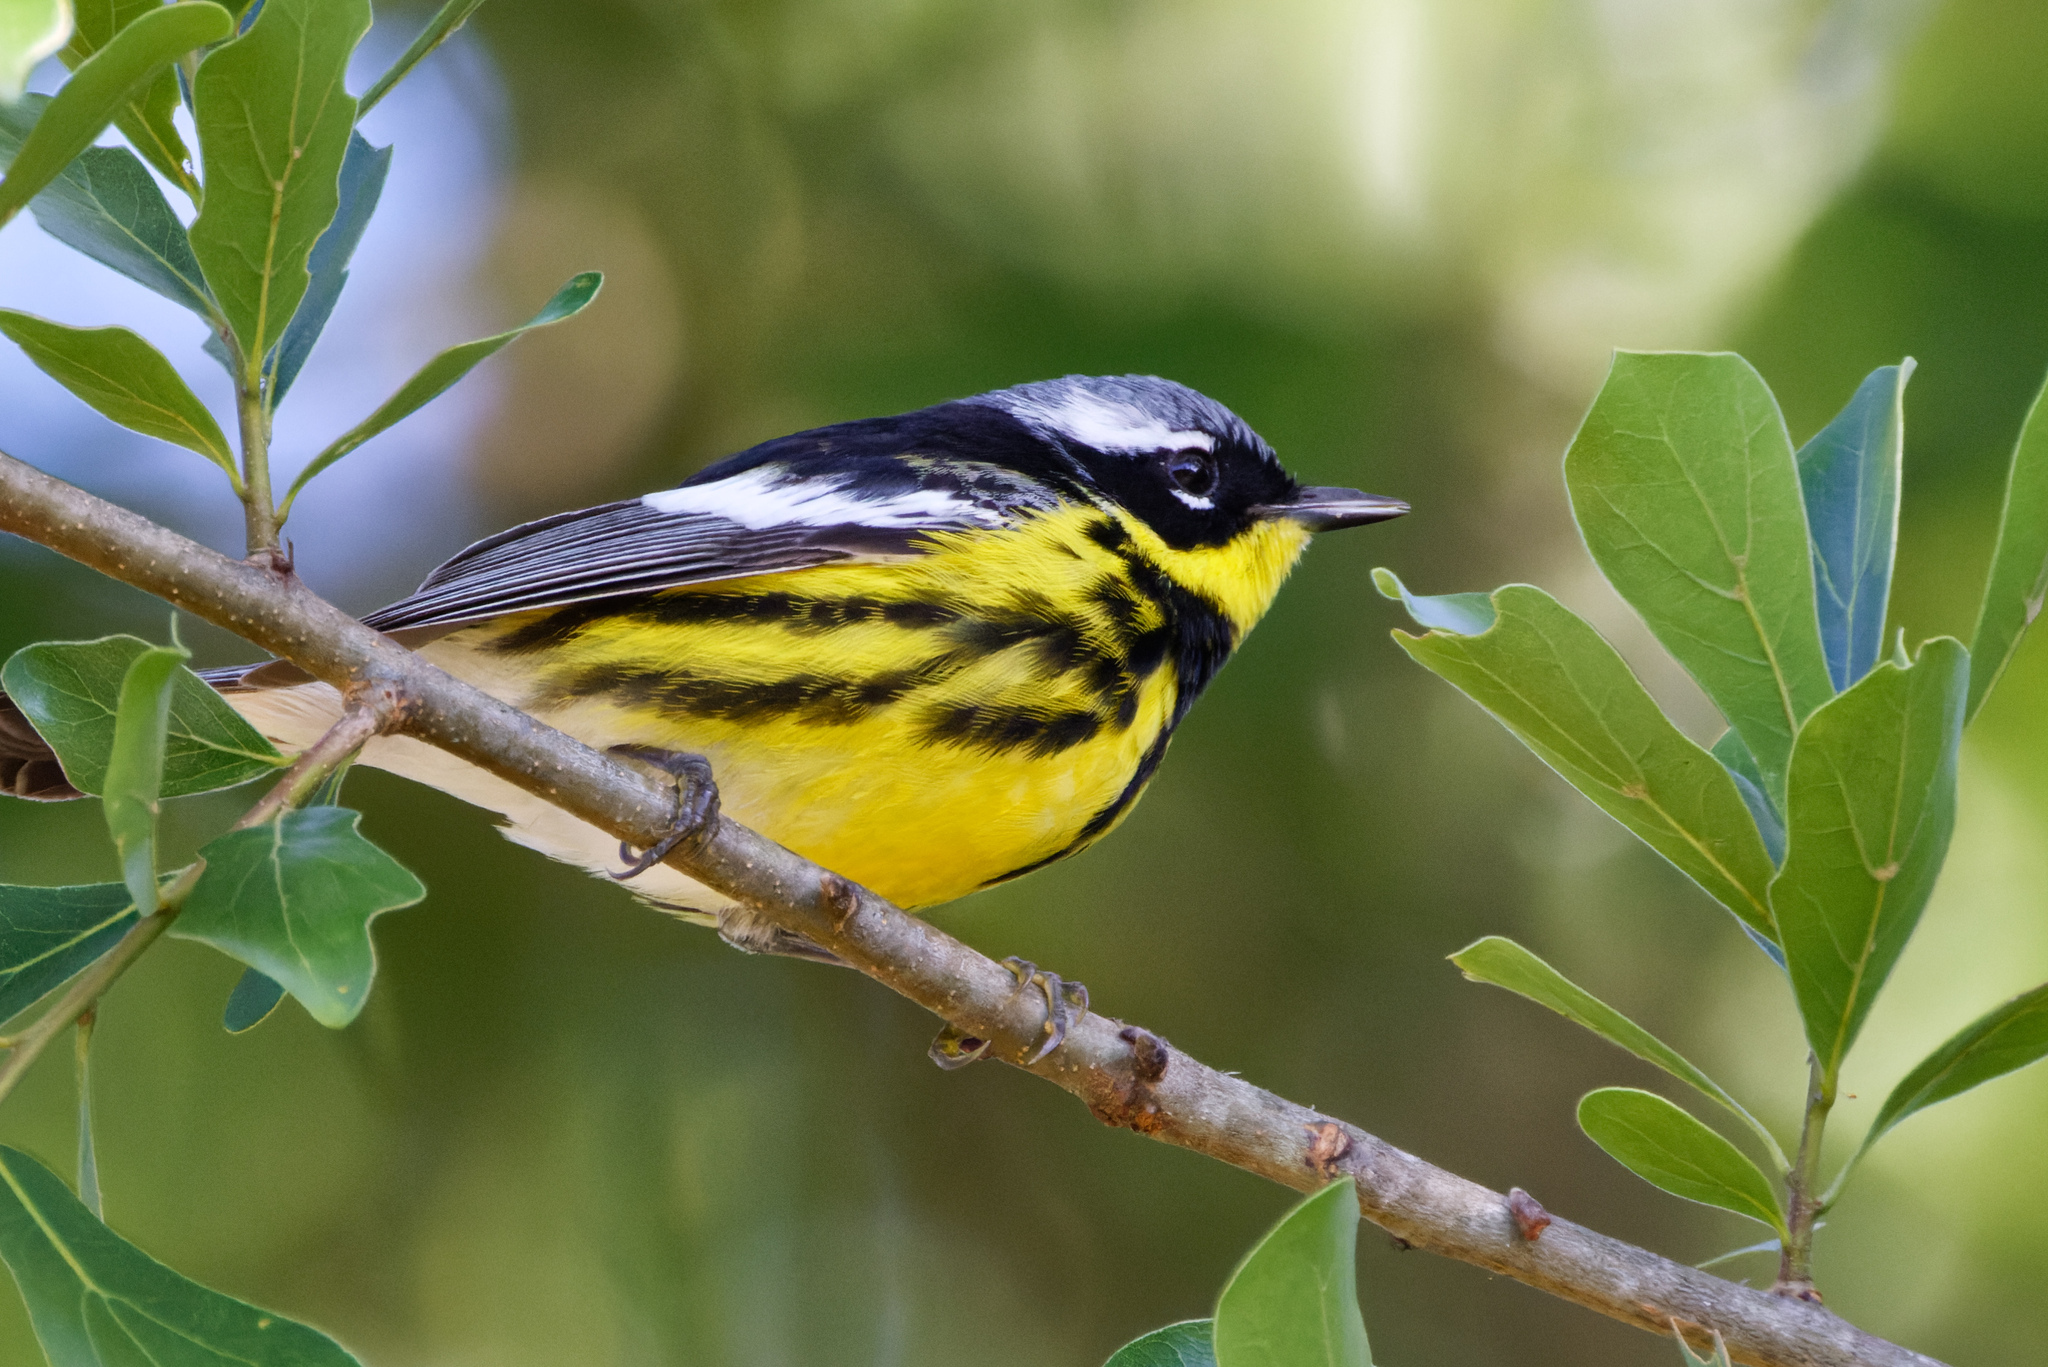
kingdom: Animalia
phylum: Chordata
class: Aves
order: Passeriformes
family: Parulidae
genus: Setophaga
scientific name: Setophaga magnolia
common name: Magnolia warbler
